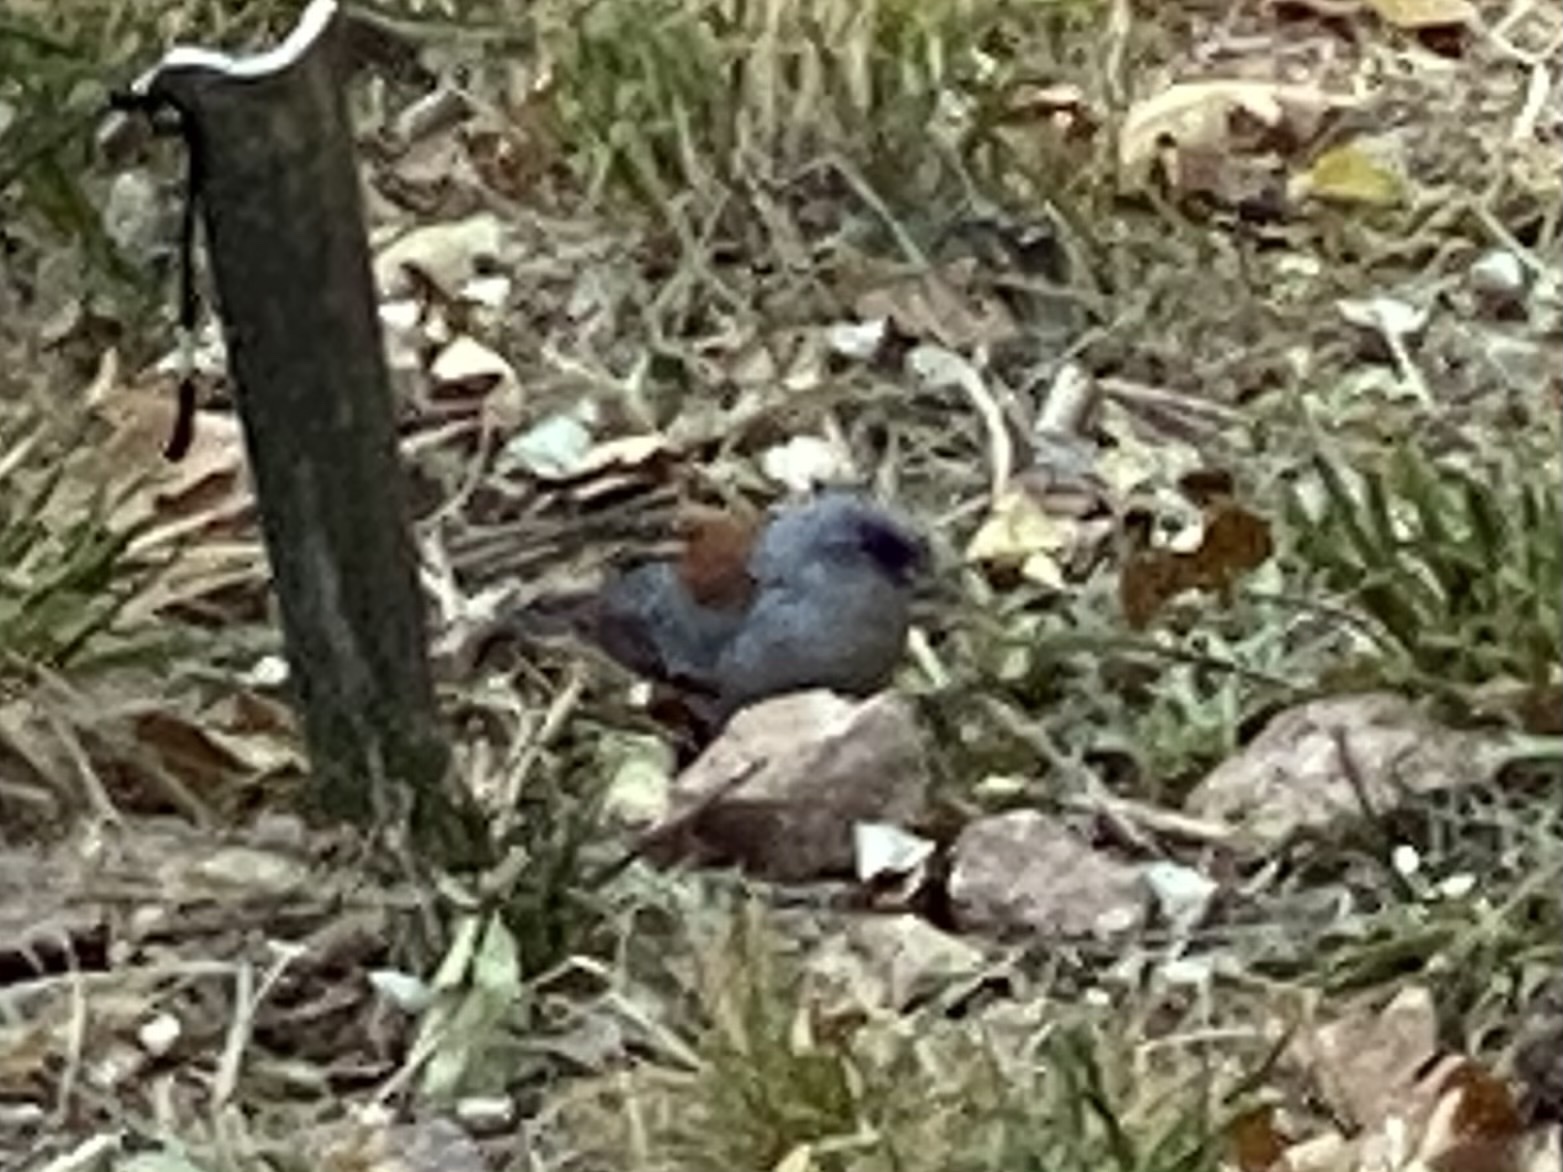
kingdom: Animalia
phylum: Chordata
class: Aves
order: Passeriformes
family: Passerellidae
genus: Junco
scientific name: Junco hyemalis
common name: Dark-eyed junco
